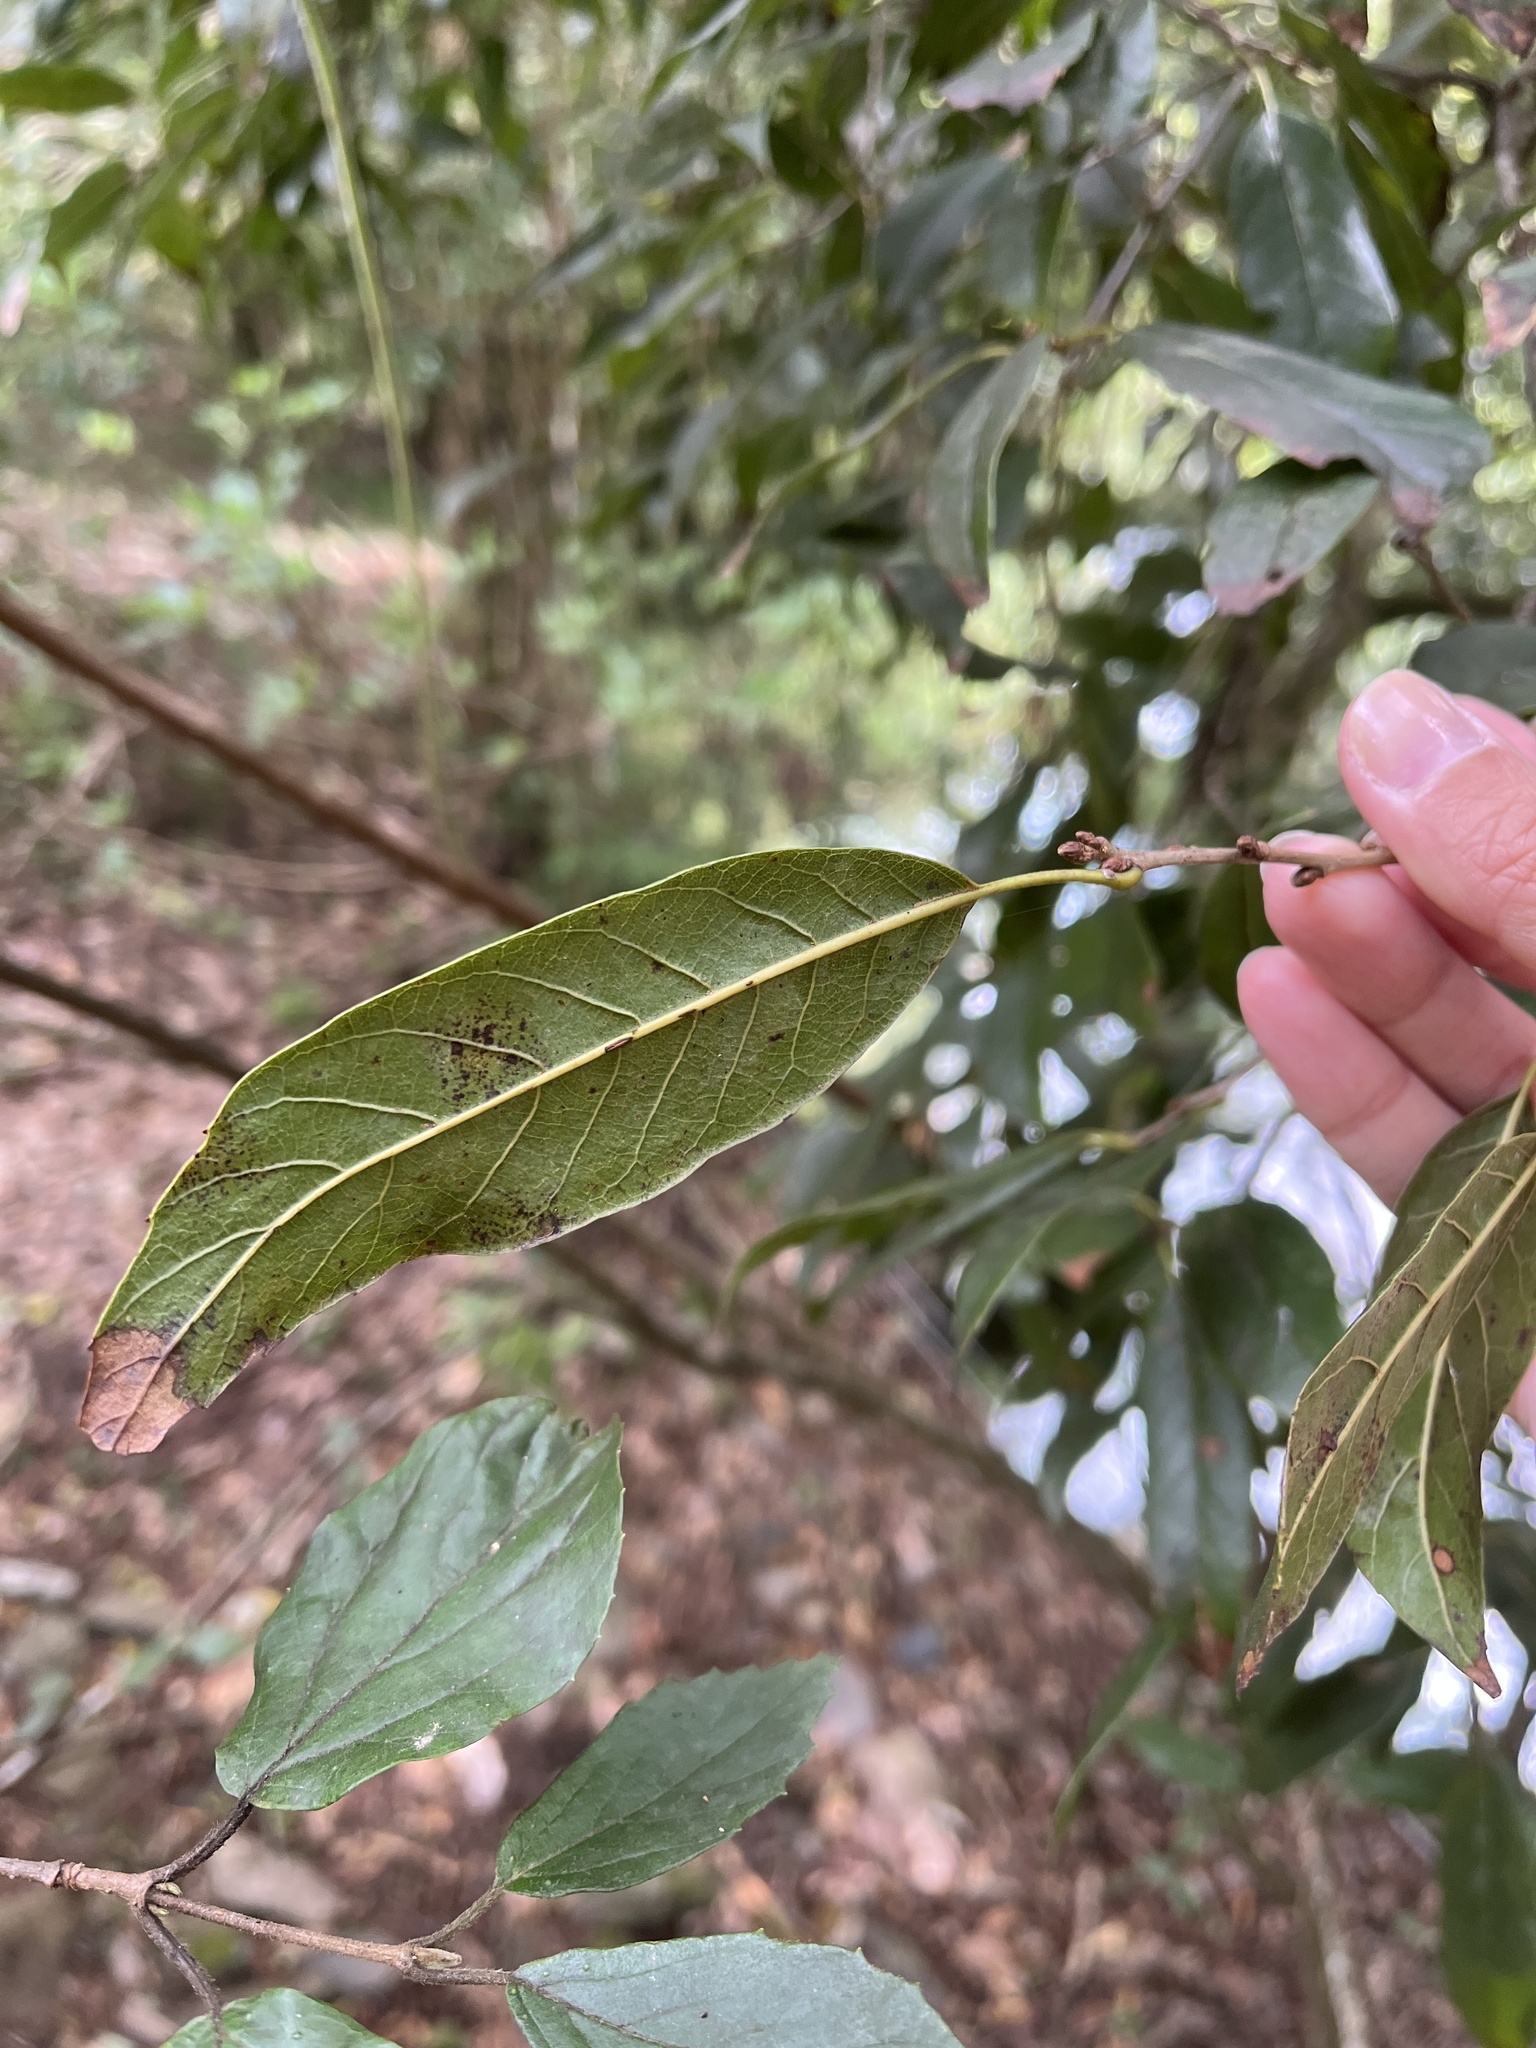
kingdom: Plantae
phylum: Tracheophyta
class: Magnoliopsida
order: Fagales
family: Fagaceae
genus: Quercus
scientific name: Quercus tatakaensis
